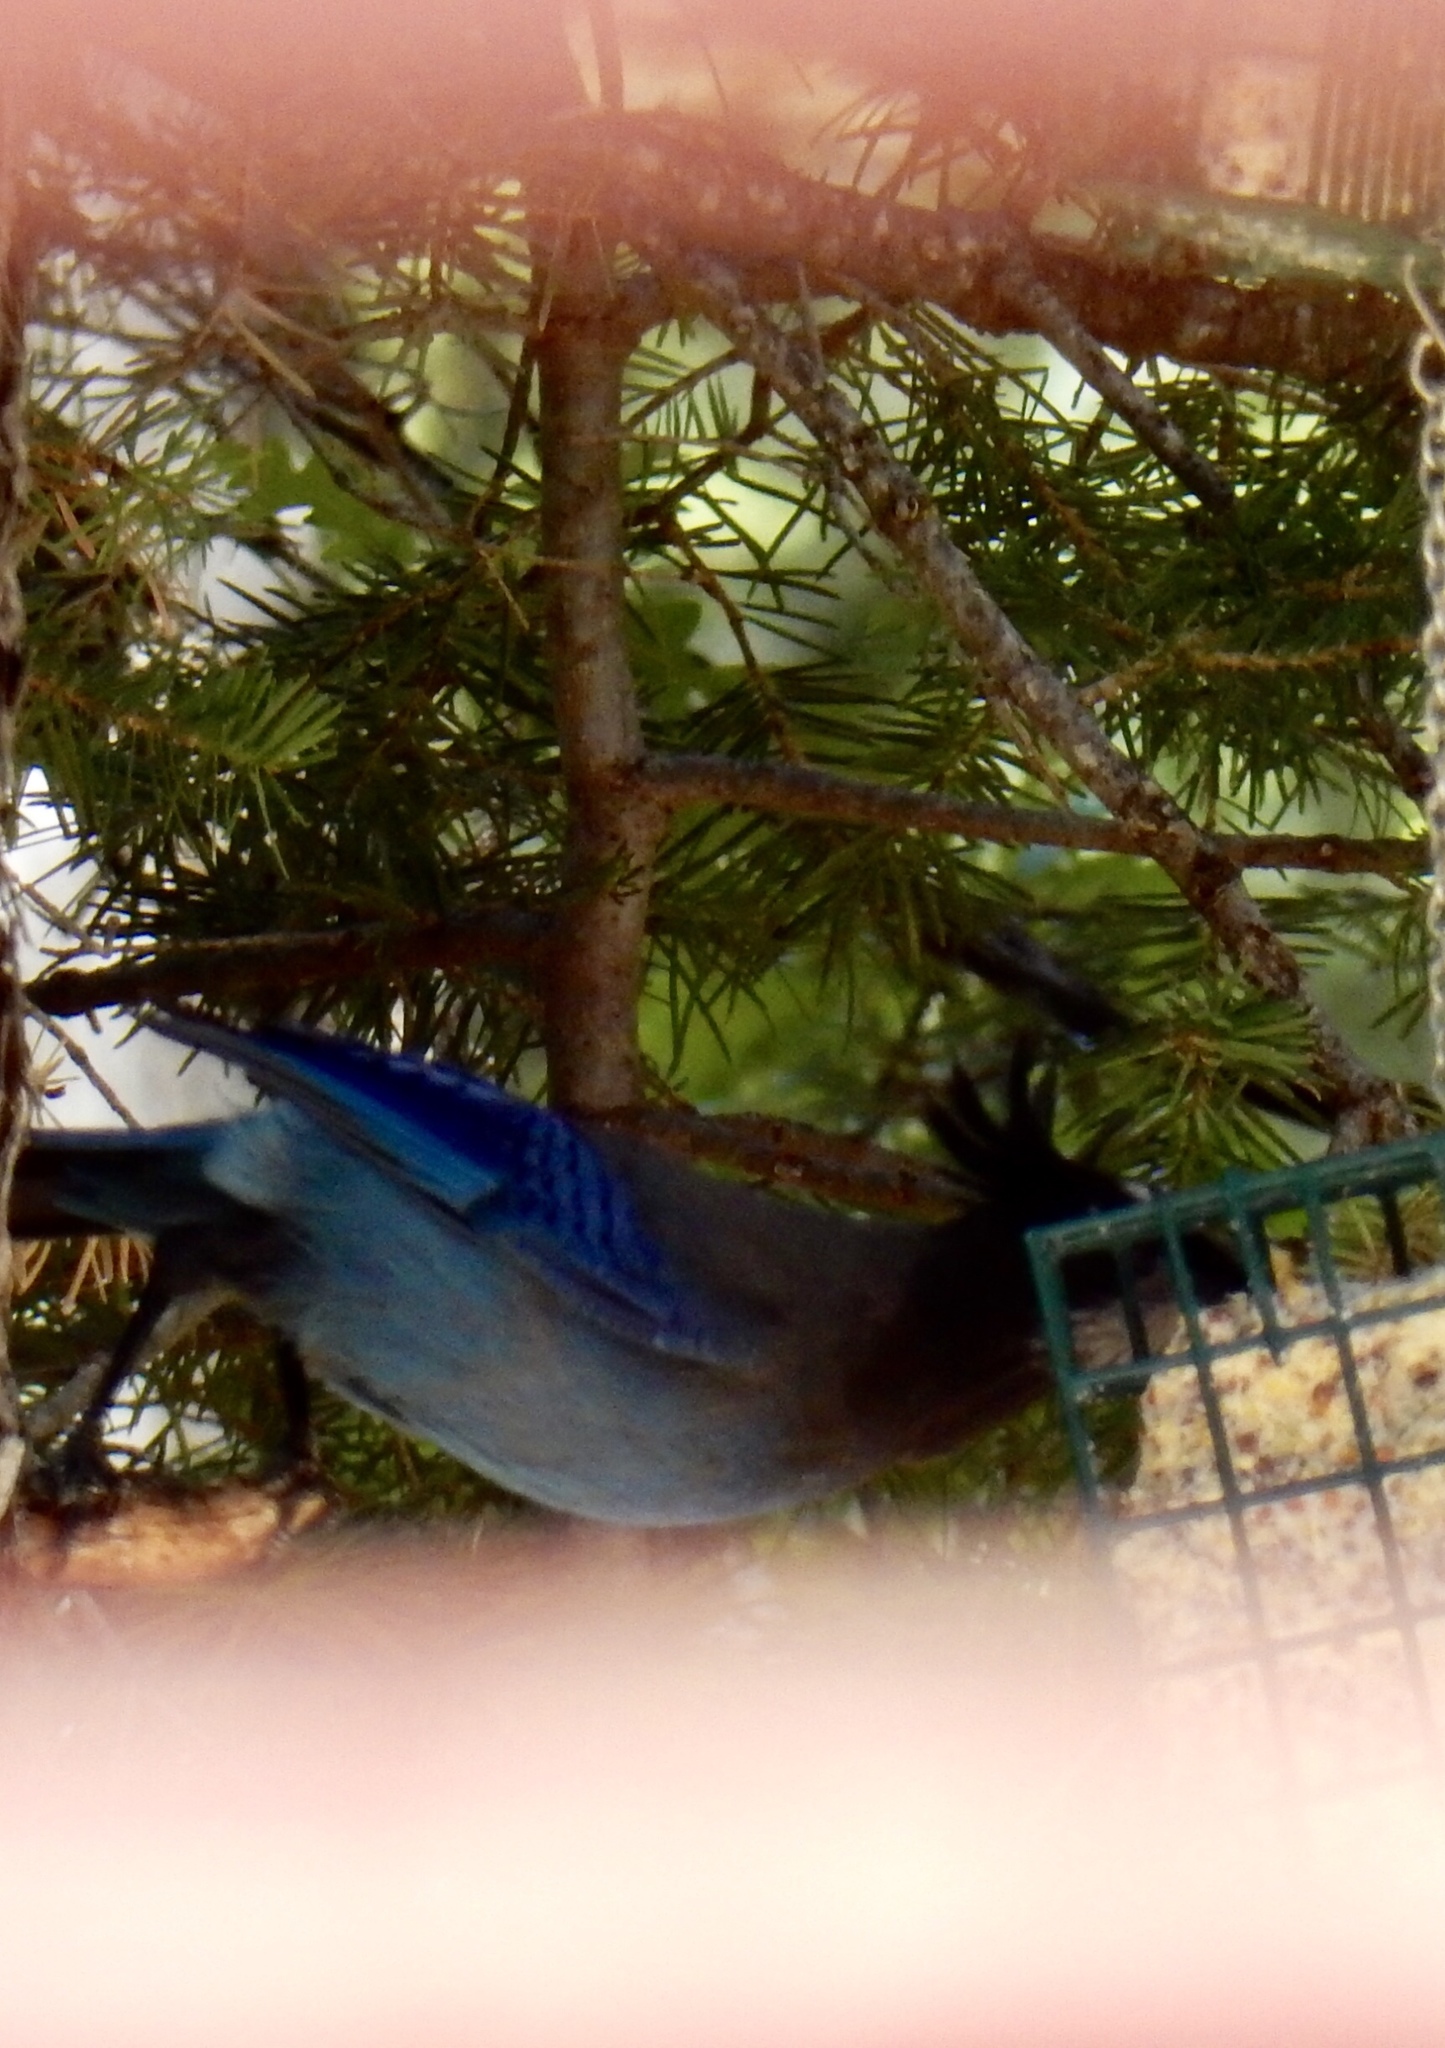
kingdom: Animalia
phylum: Chordata
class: Aves
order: Passeriformes
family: Corvidae
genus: Cyanocitta
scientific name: Cyanocitta stelleri
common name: Steller's jay
